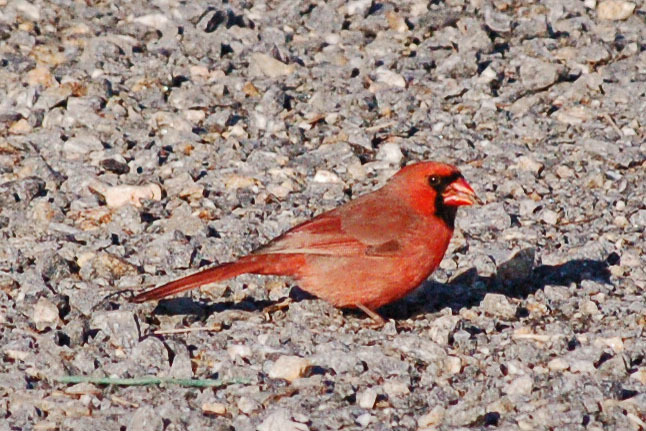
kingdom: Animalia
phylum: Chordata
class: Aves
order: Passeriformes
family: Cardinalidae
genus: Cardinalis
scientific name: Cardinalis cardinalis
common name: Northern cardinal
